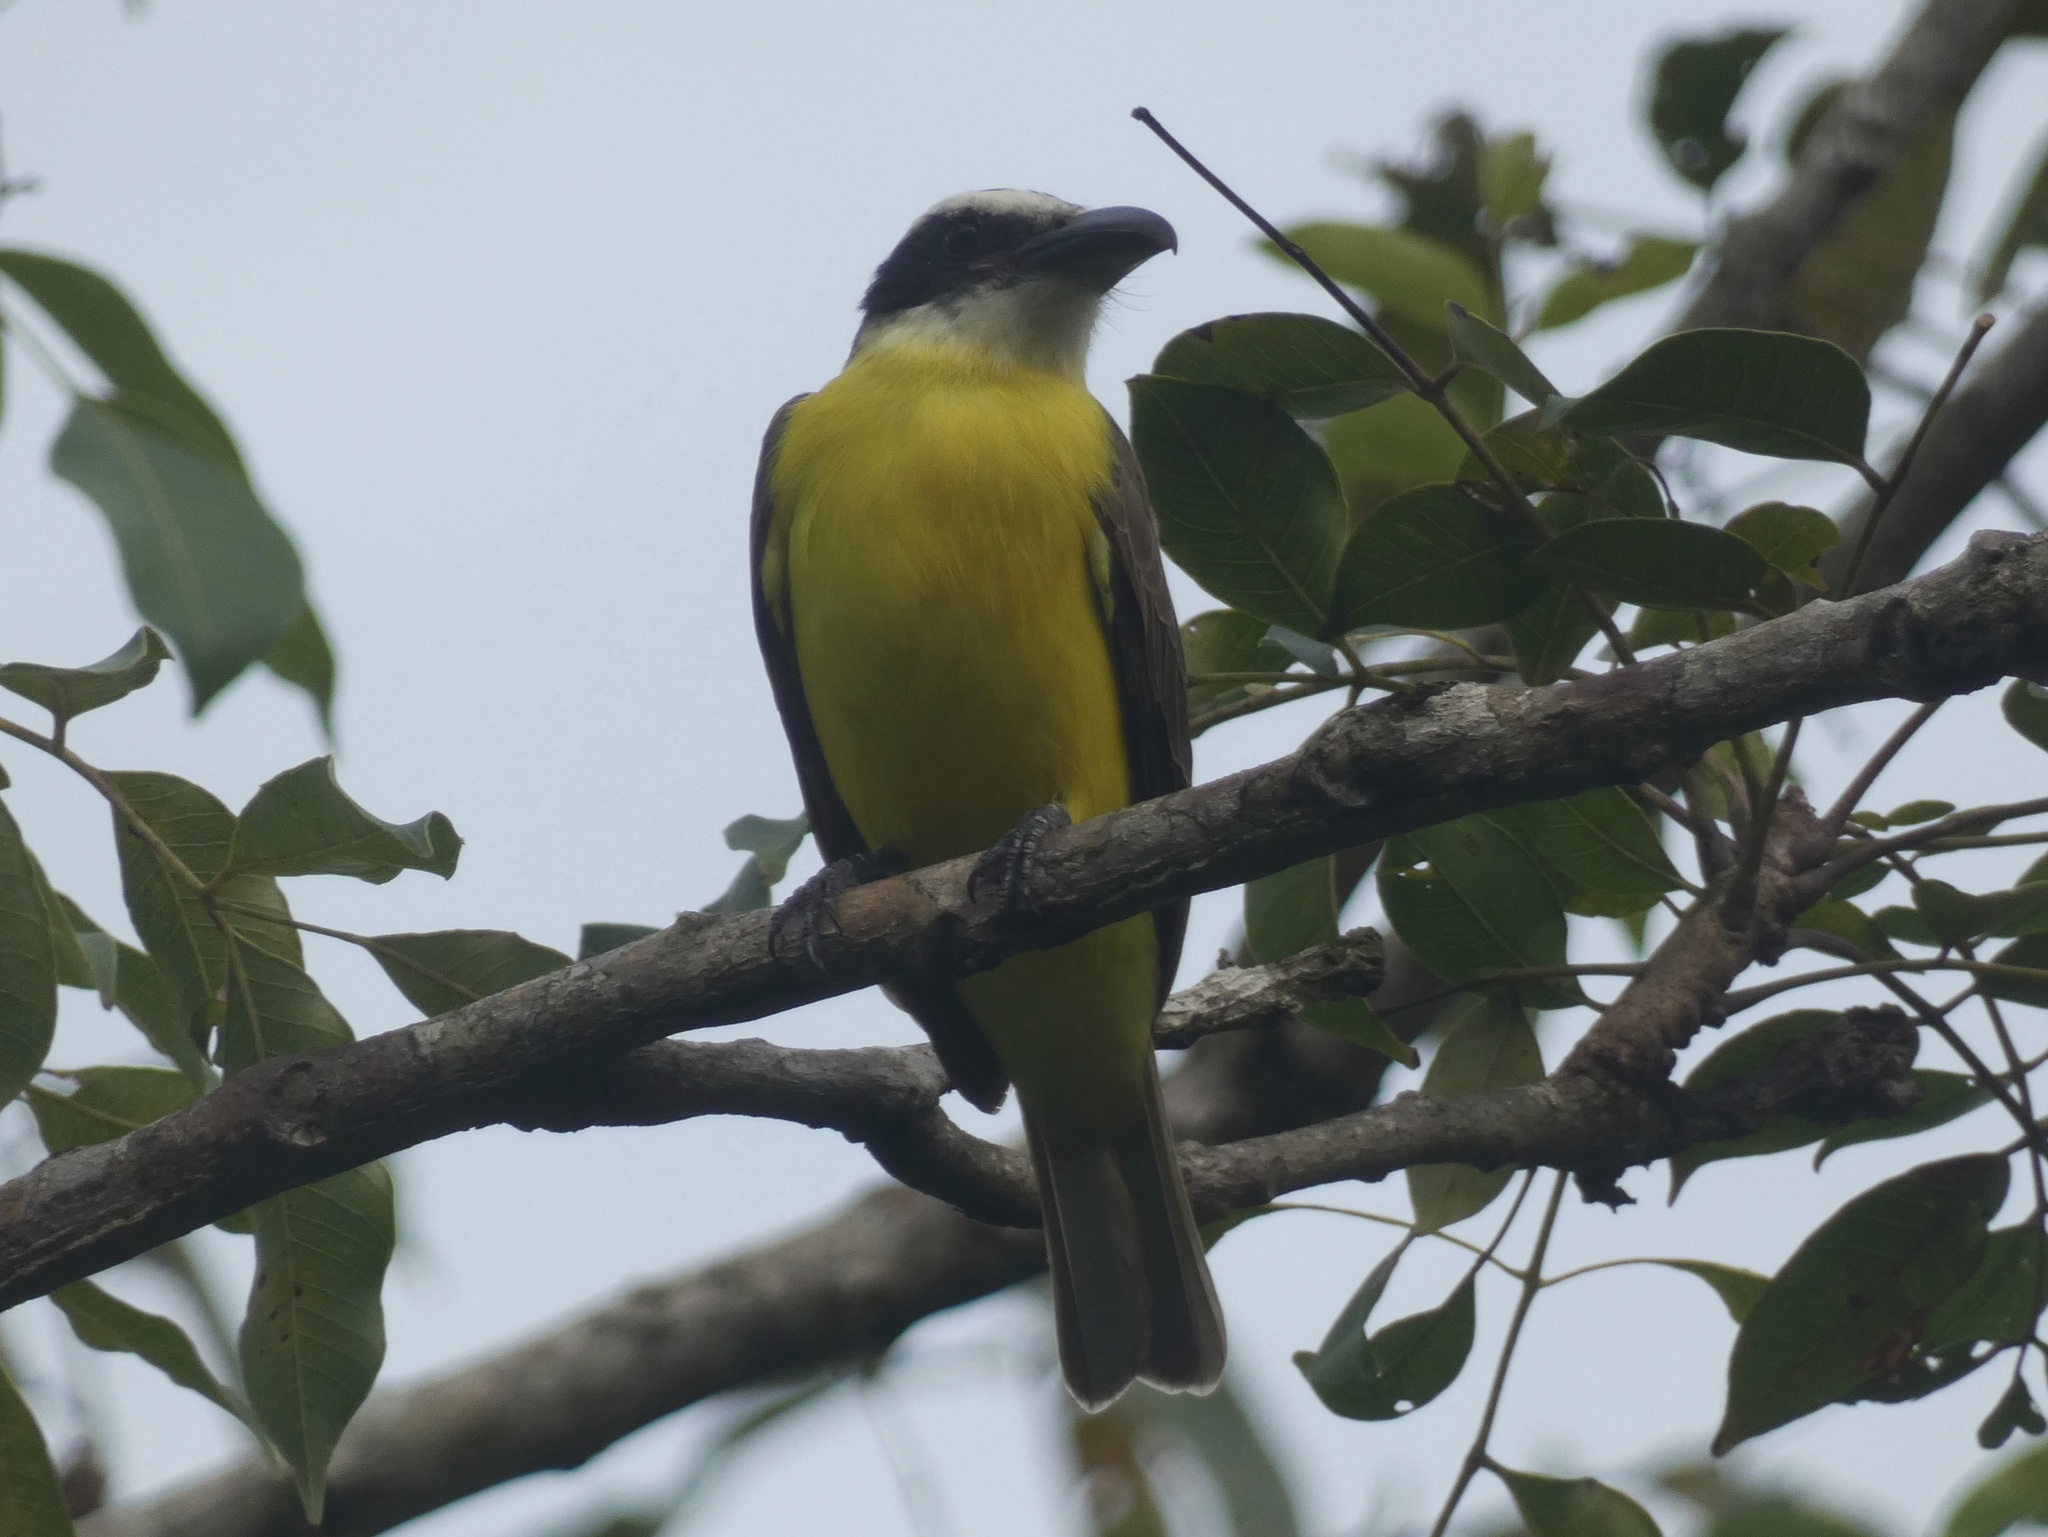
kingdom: Animalia
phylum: Chordata
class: Aves
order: Passeriformes
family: Tyrannidae
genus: Megarynchus
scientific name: Megarynchus pitangua
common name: Boat-billed flycatcher
